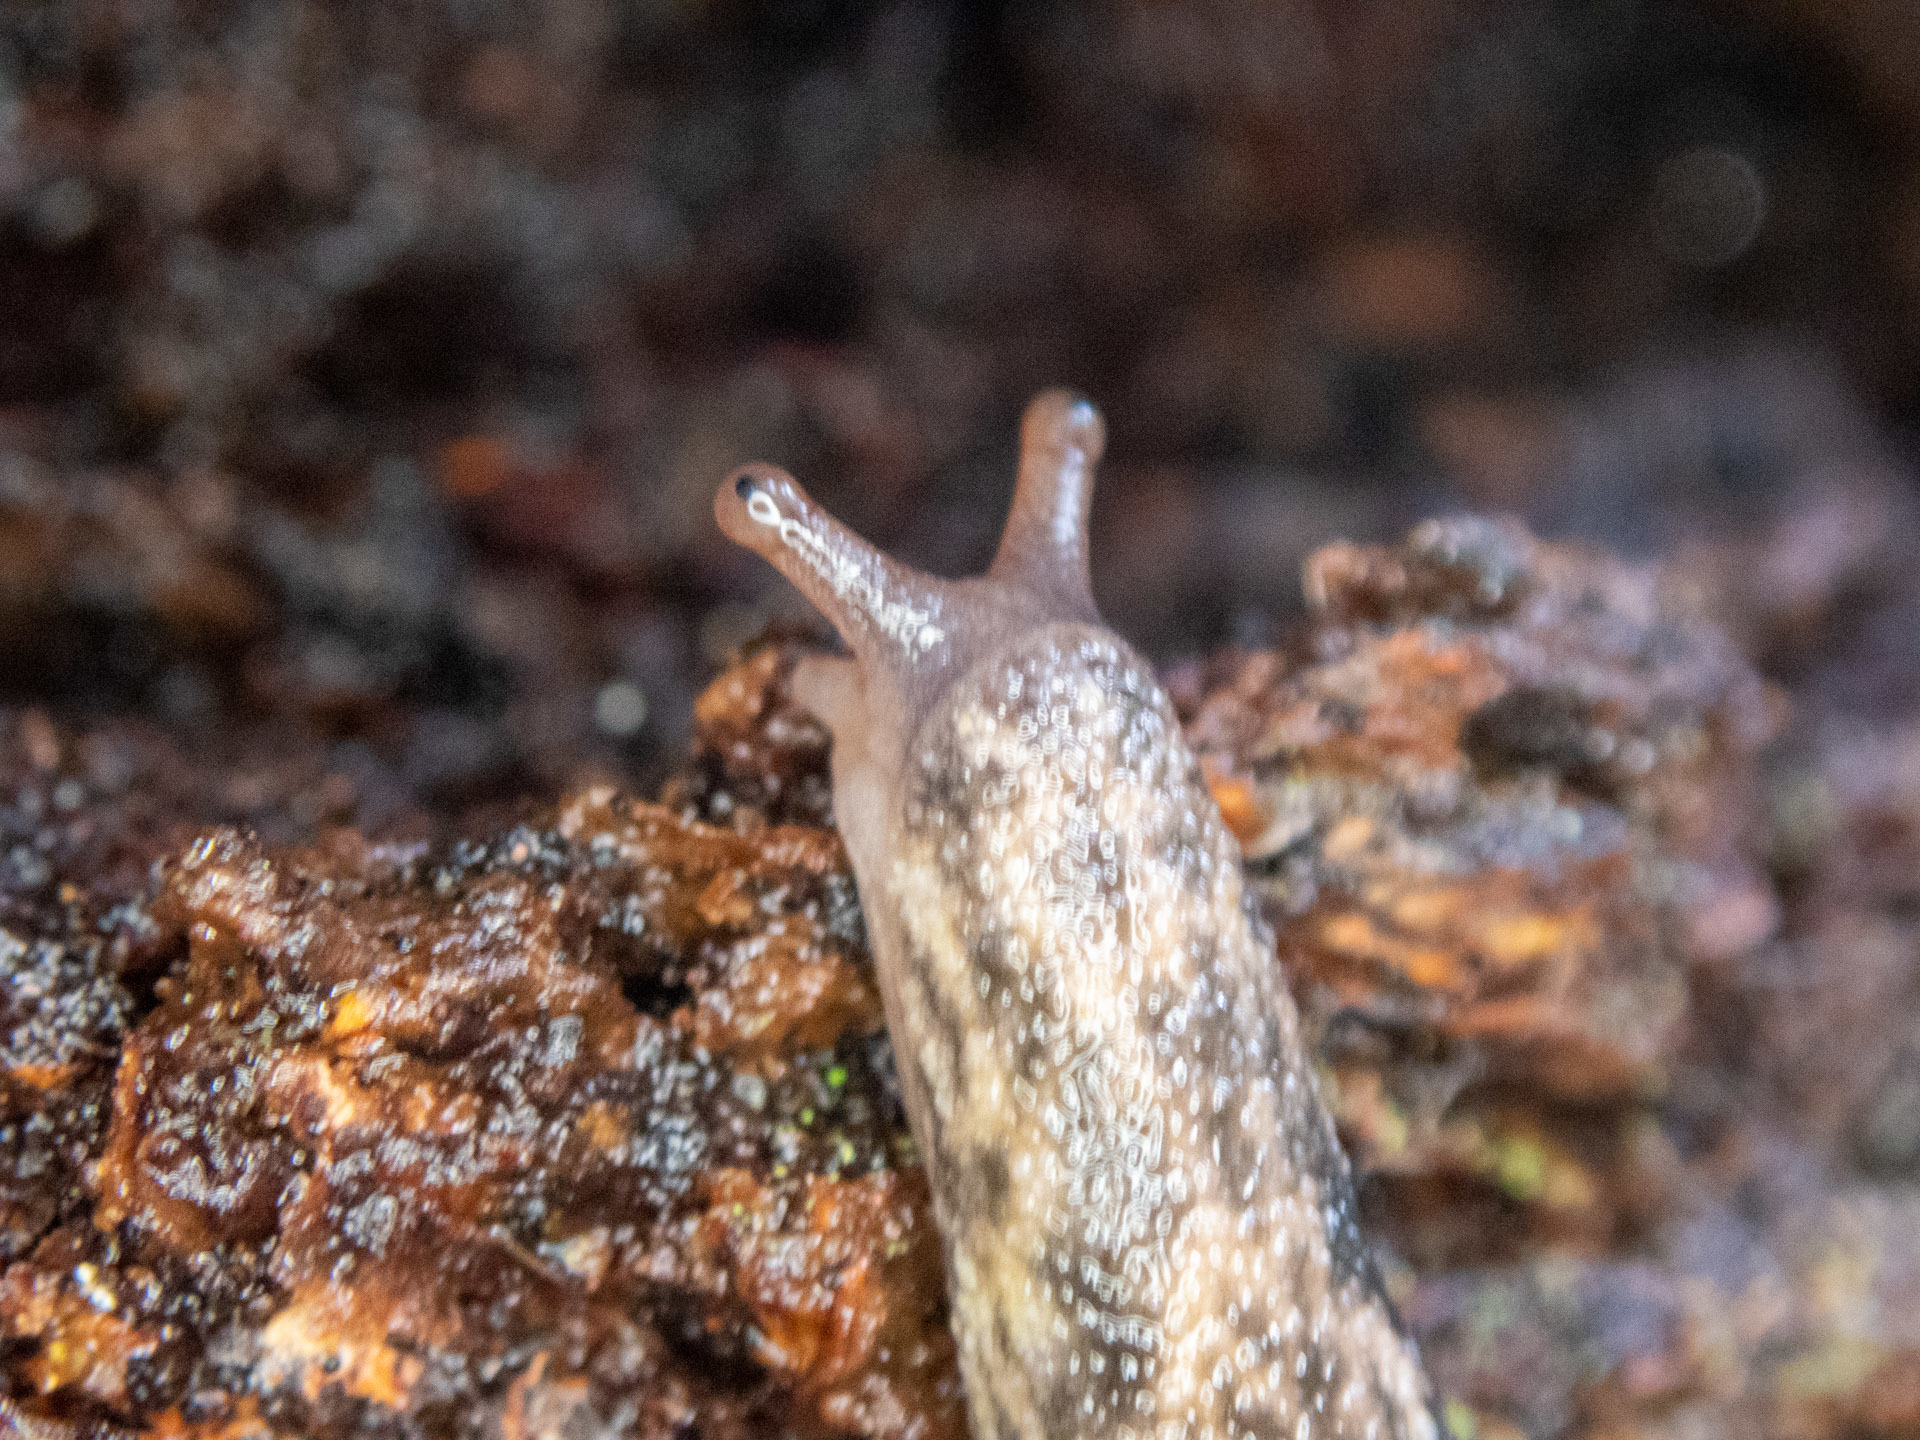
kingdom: Animalia
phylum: Mollusca
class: Gastropoda
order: Stylommatophora
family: Ariolimacidae
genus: Prophysaon
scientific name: Prophysaon andersonii
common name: Reticulate taildropper
